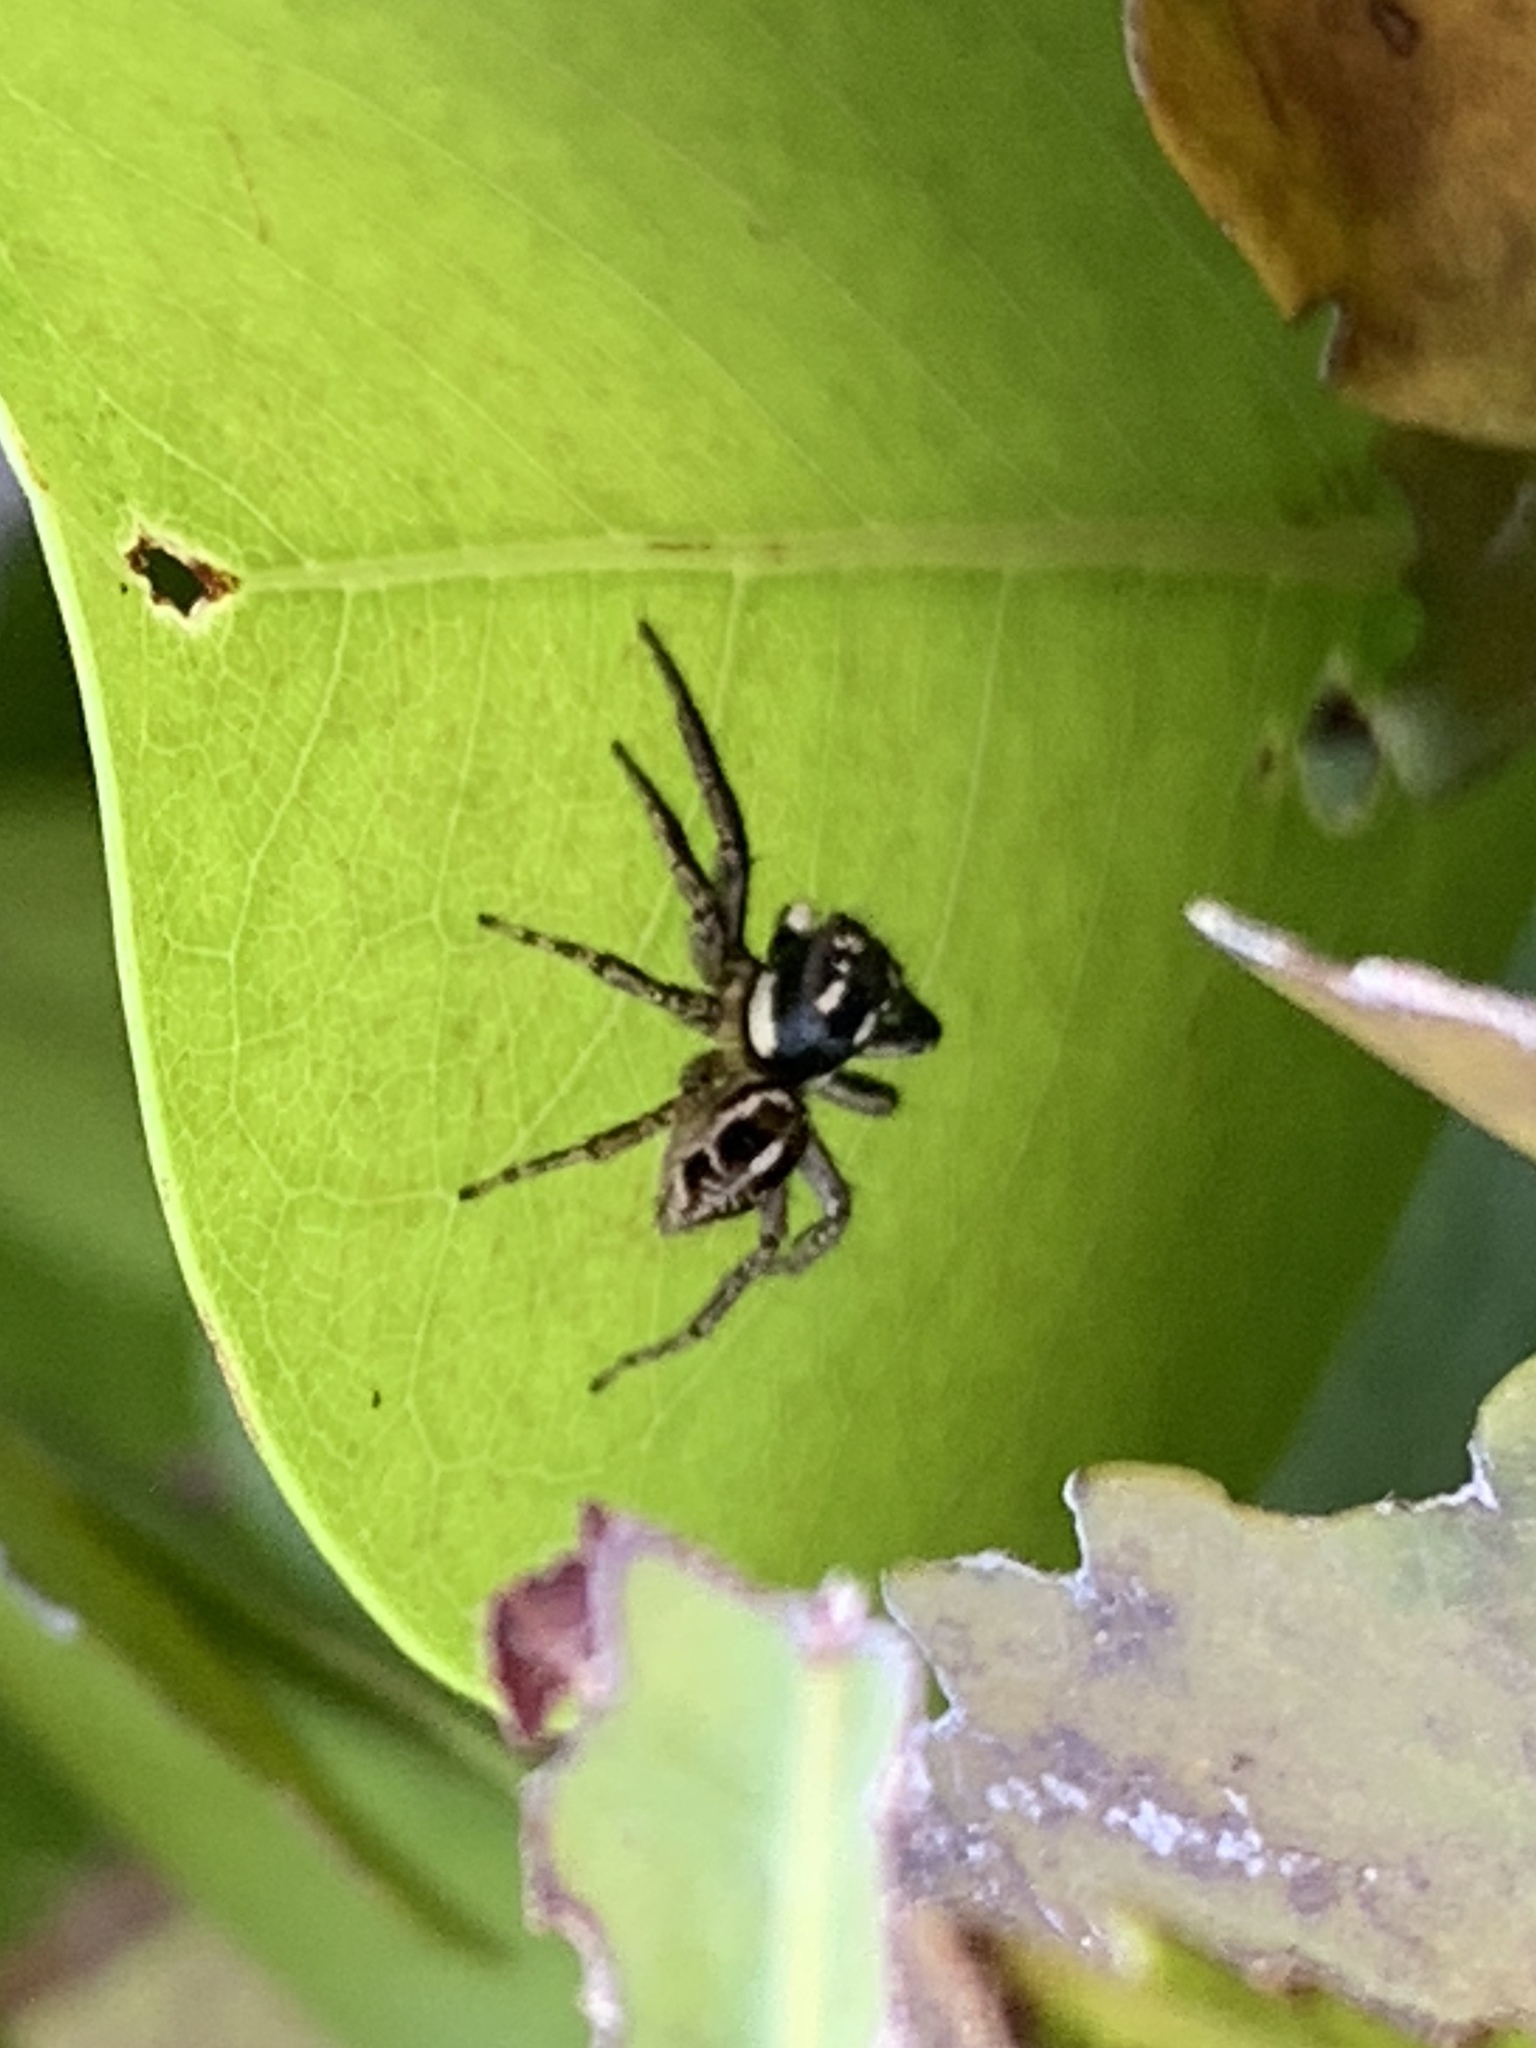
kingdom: Animalia
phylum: Arthropoda
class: Arachnida
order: Araneae
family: Salticidae
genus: Anasaitis
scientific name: Anasaitis canosa
